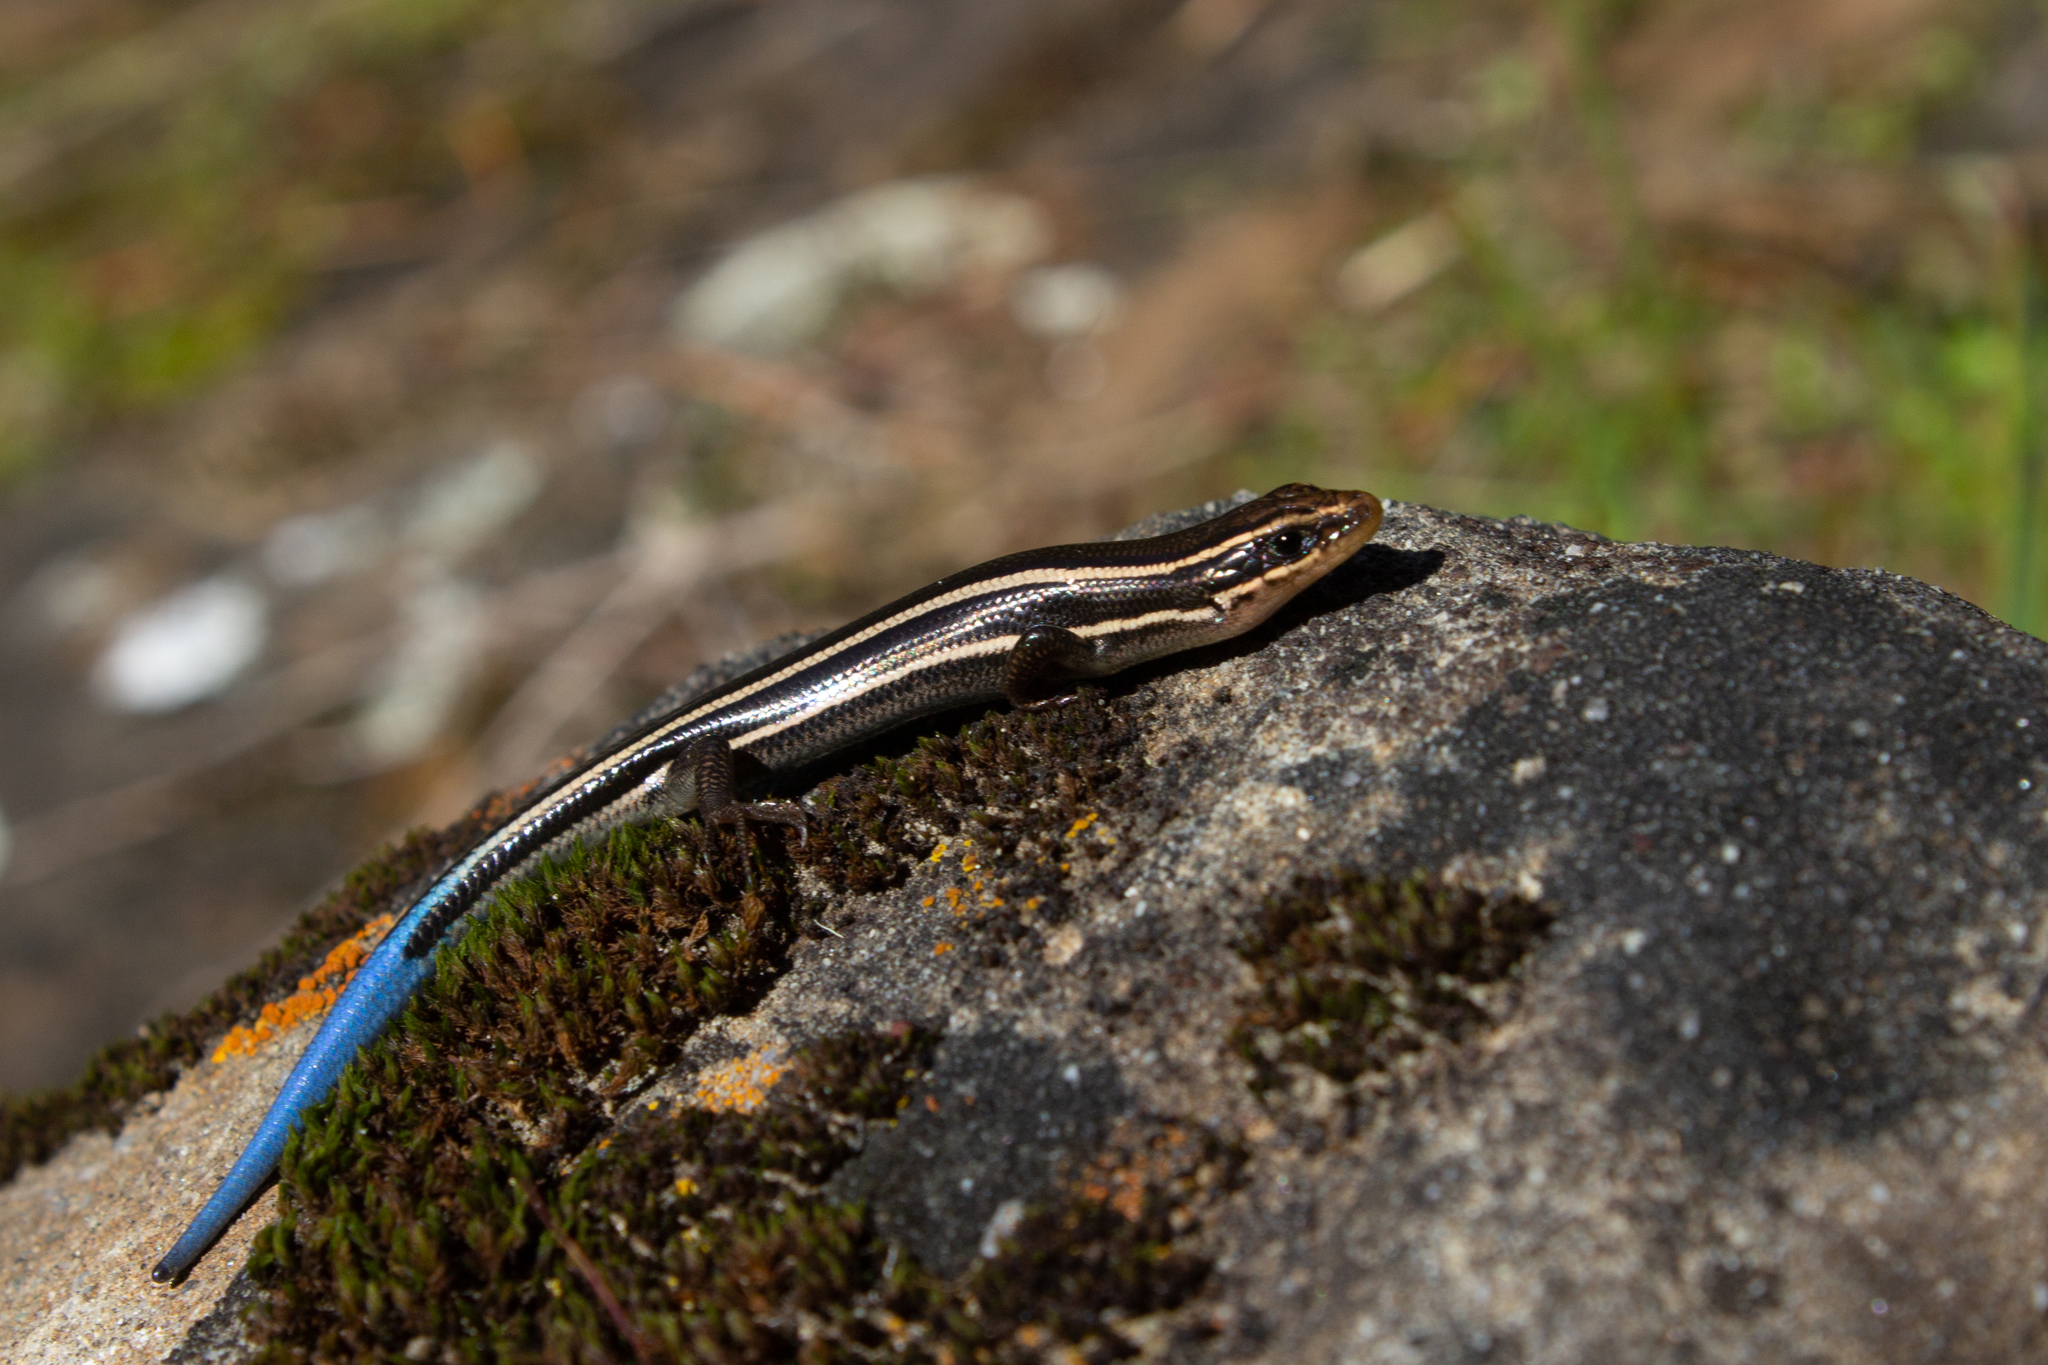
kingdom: Animalia
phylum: Chordata
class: Squamata
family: Scincidae
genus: Plestiodon
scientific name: Plestiodon skiltonianus
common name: Coronado island skink [interparietalis]
